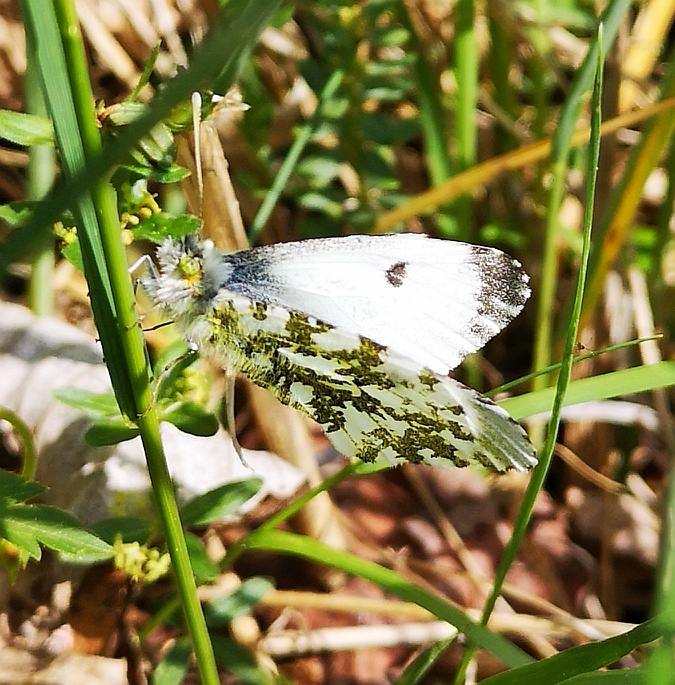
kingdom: Animalia
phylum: Arthropoda
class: Insecta
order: Lepidoptera
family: Pieridae
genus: Anthocharis
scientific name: Anthocharis cardamines
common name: Orange-tip
